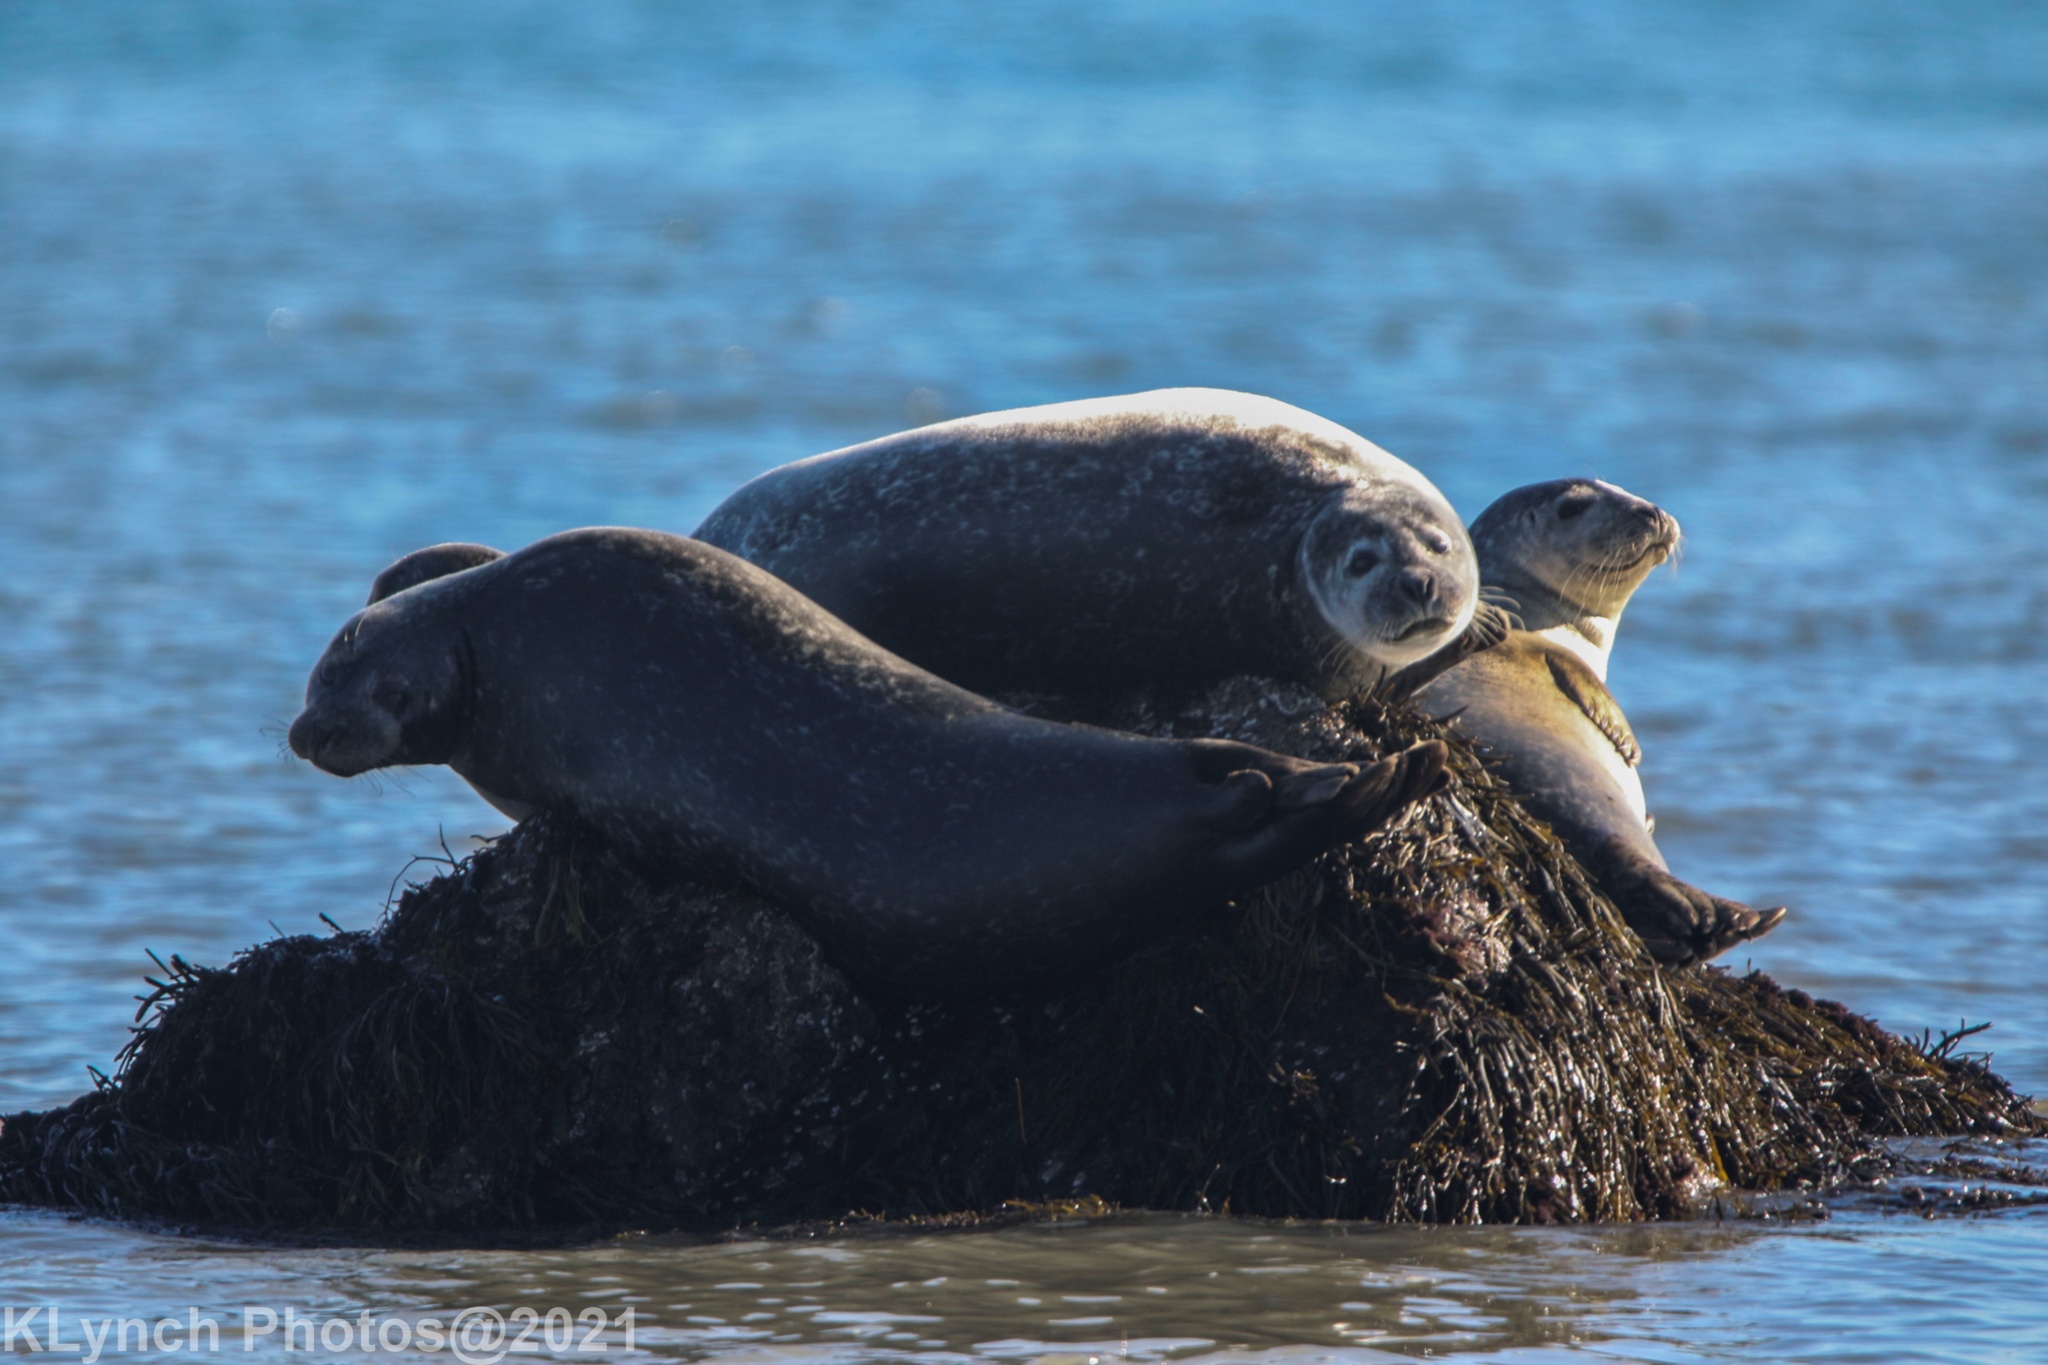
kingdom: Animalia
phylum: Chordata
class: Mammalia
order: Carnivora
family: Phocidae
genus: Phoca
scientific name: Phoca vitulina
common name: Harbor seal
